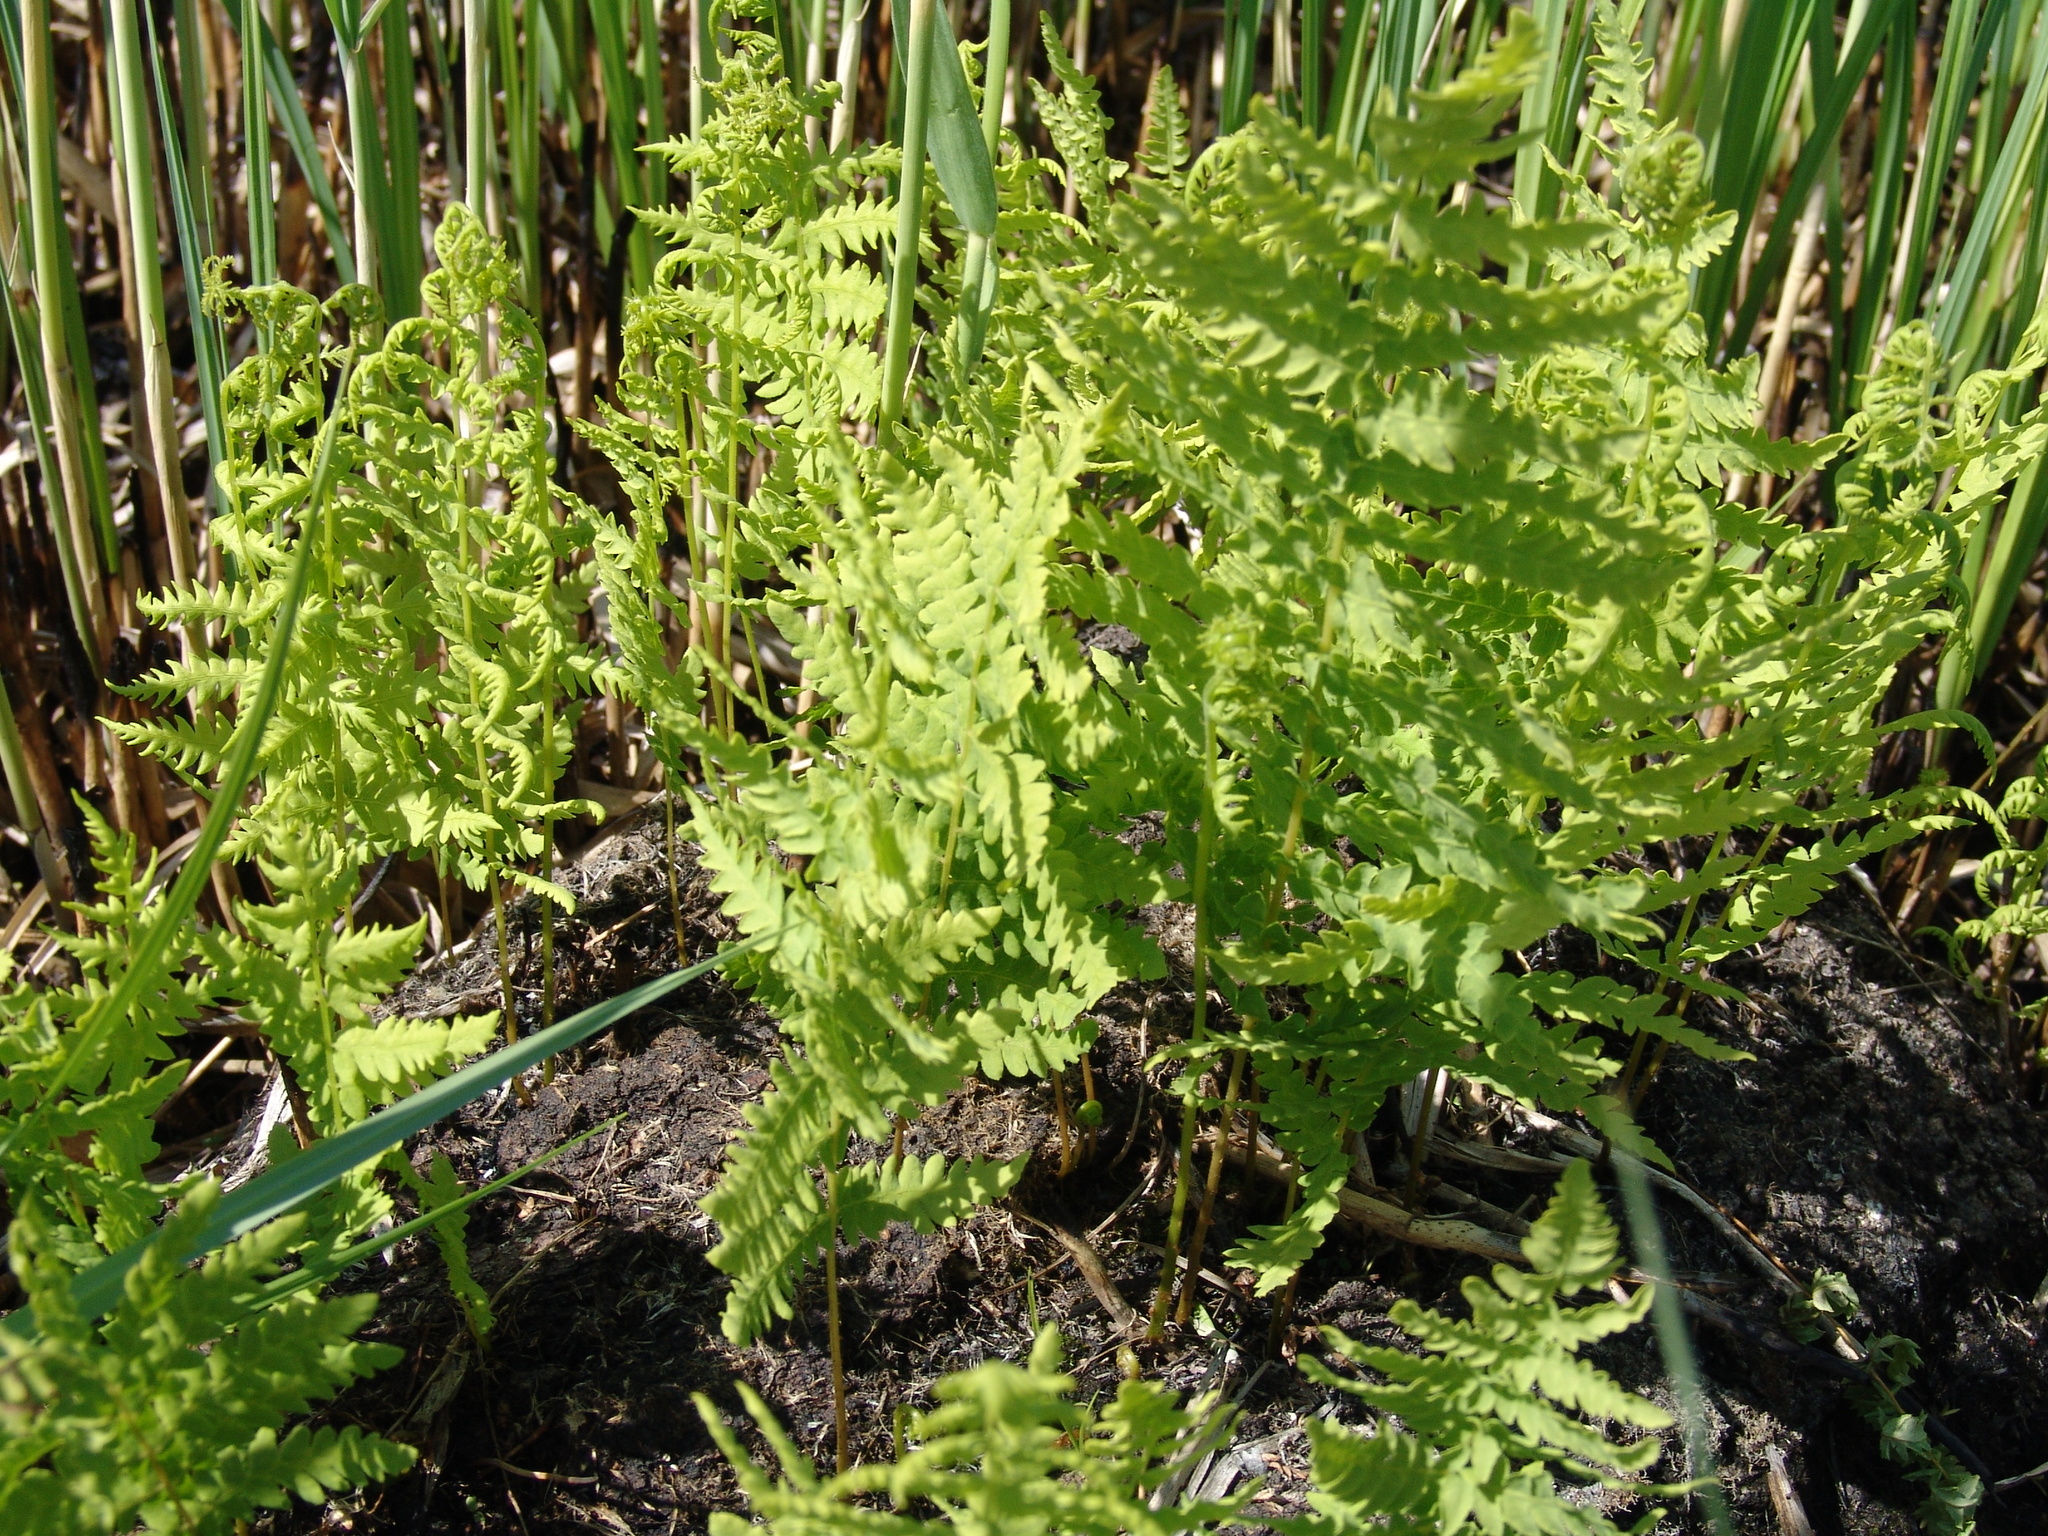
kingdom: Plantae
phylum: Tracheophyta
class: Polypodiopsida
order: Polypodiales
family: Thelypteridaceae
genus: Thelypteris
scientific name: Thelypteris palustris
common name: Marsh fern
